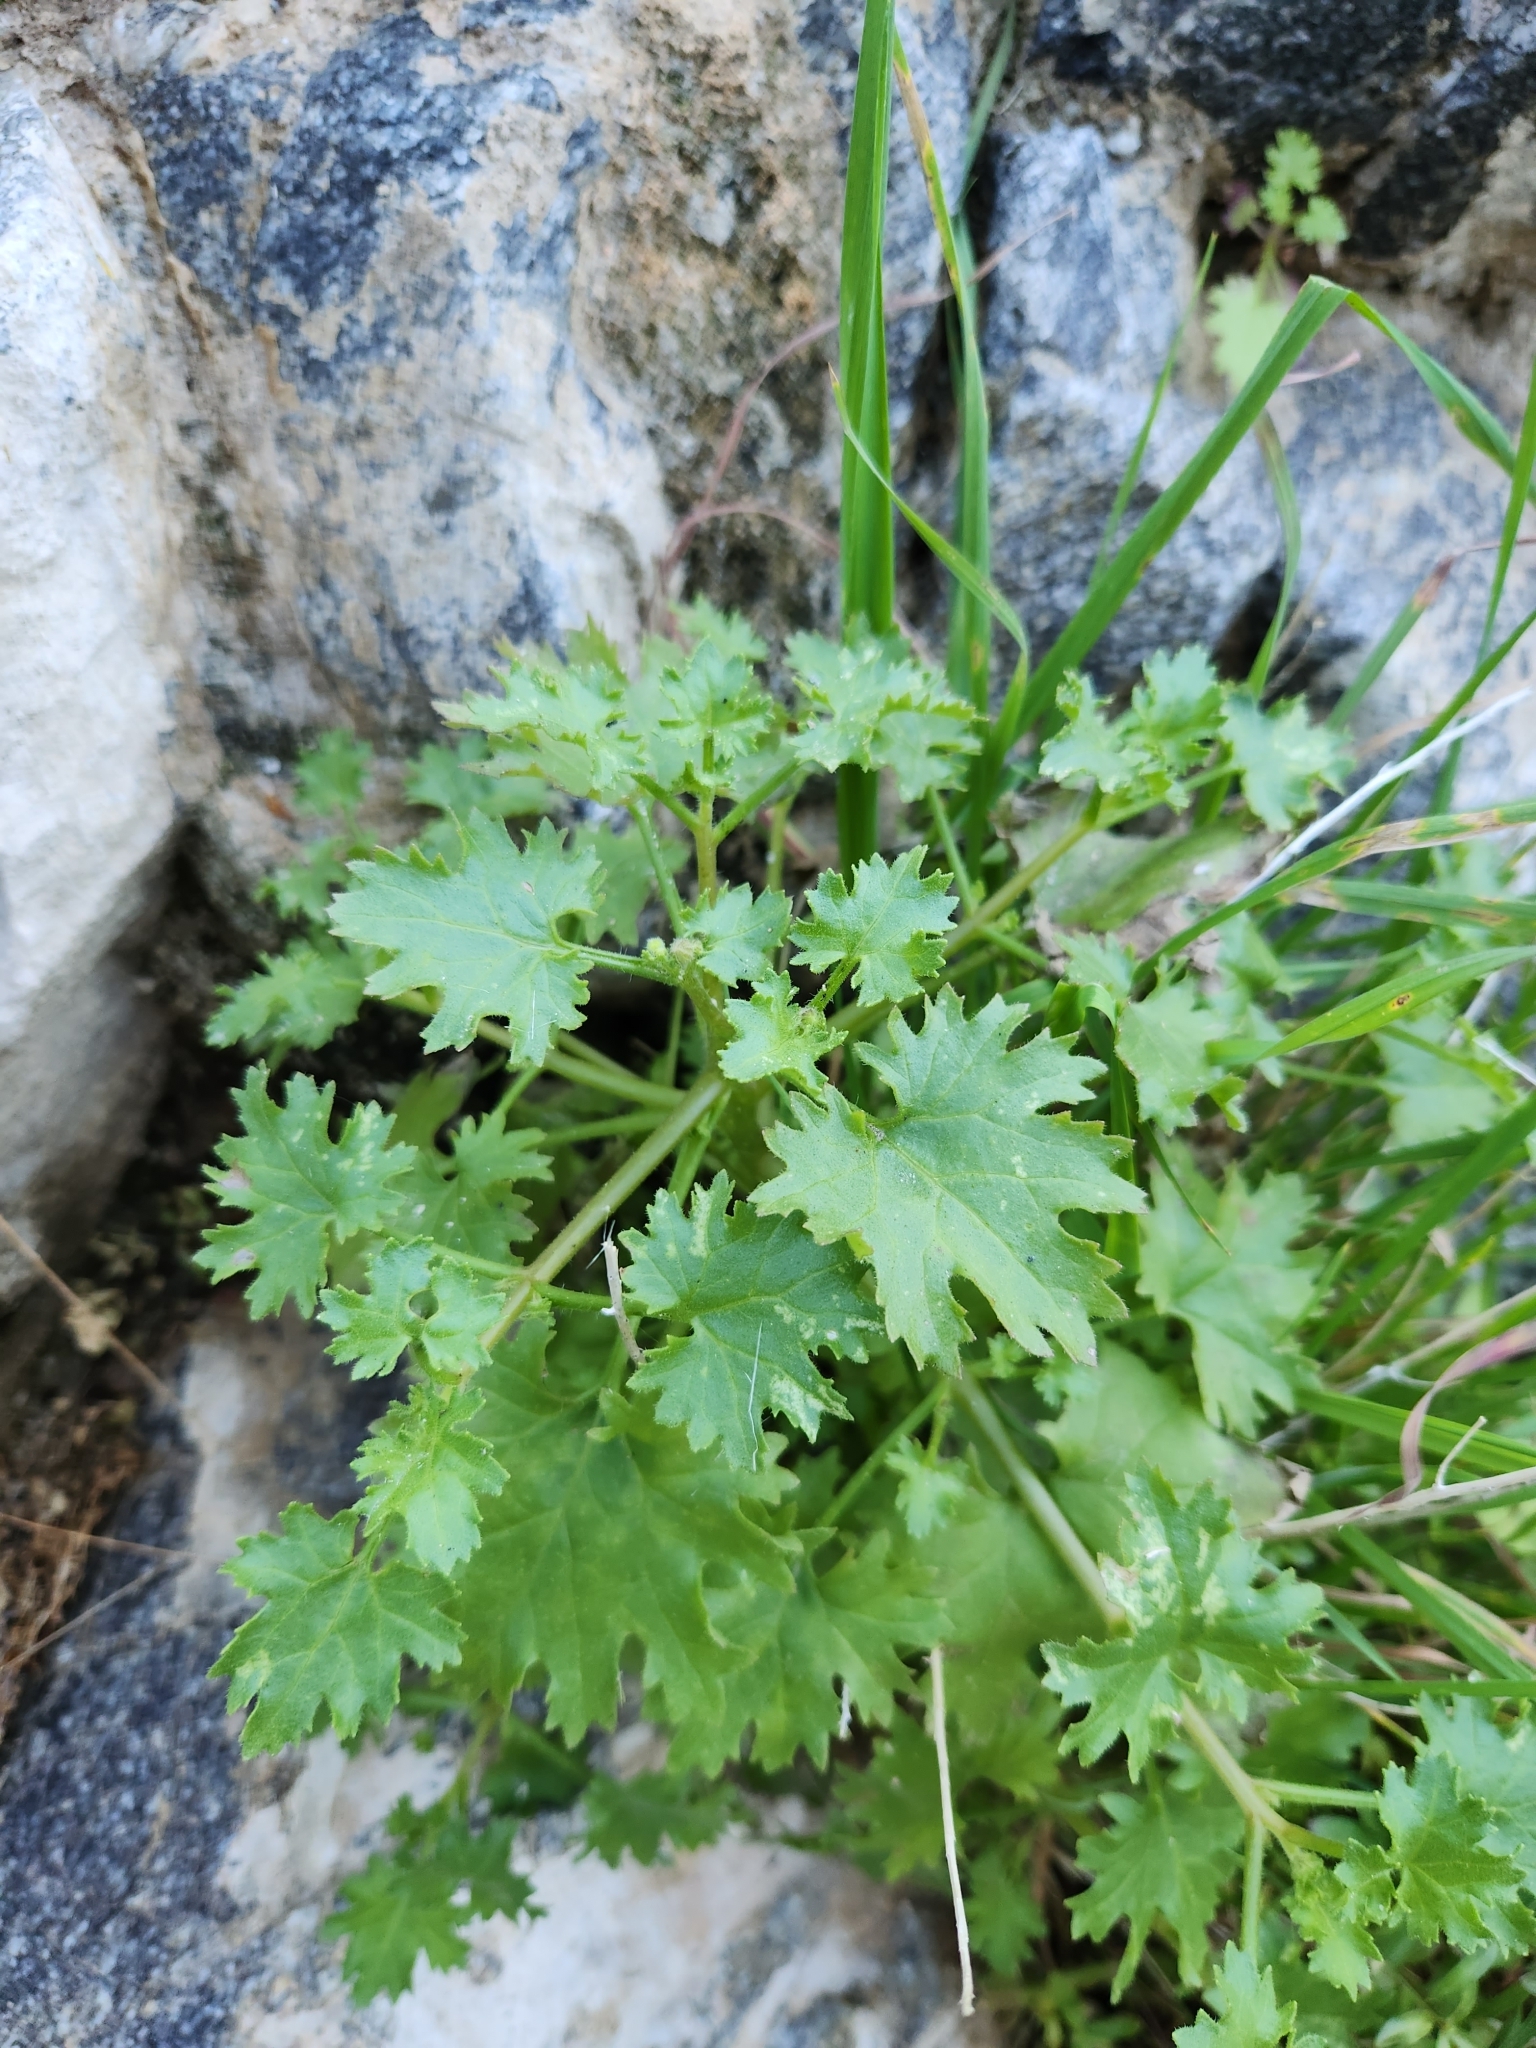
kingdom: Plantae
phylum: Tracheophyta
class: Magnoliopsida
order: Asterales
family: Asteraceae
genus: Laphamia
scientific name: Laphamia emoryi
